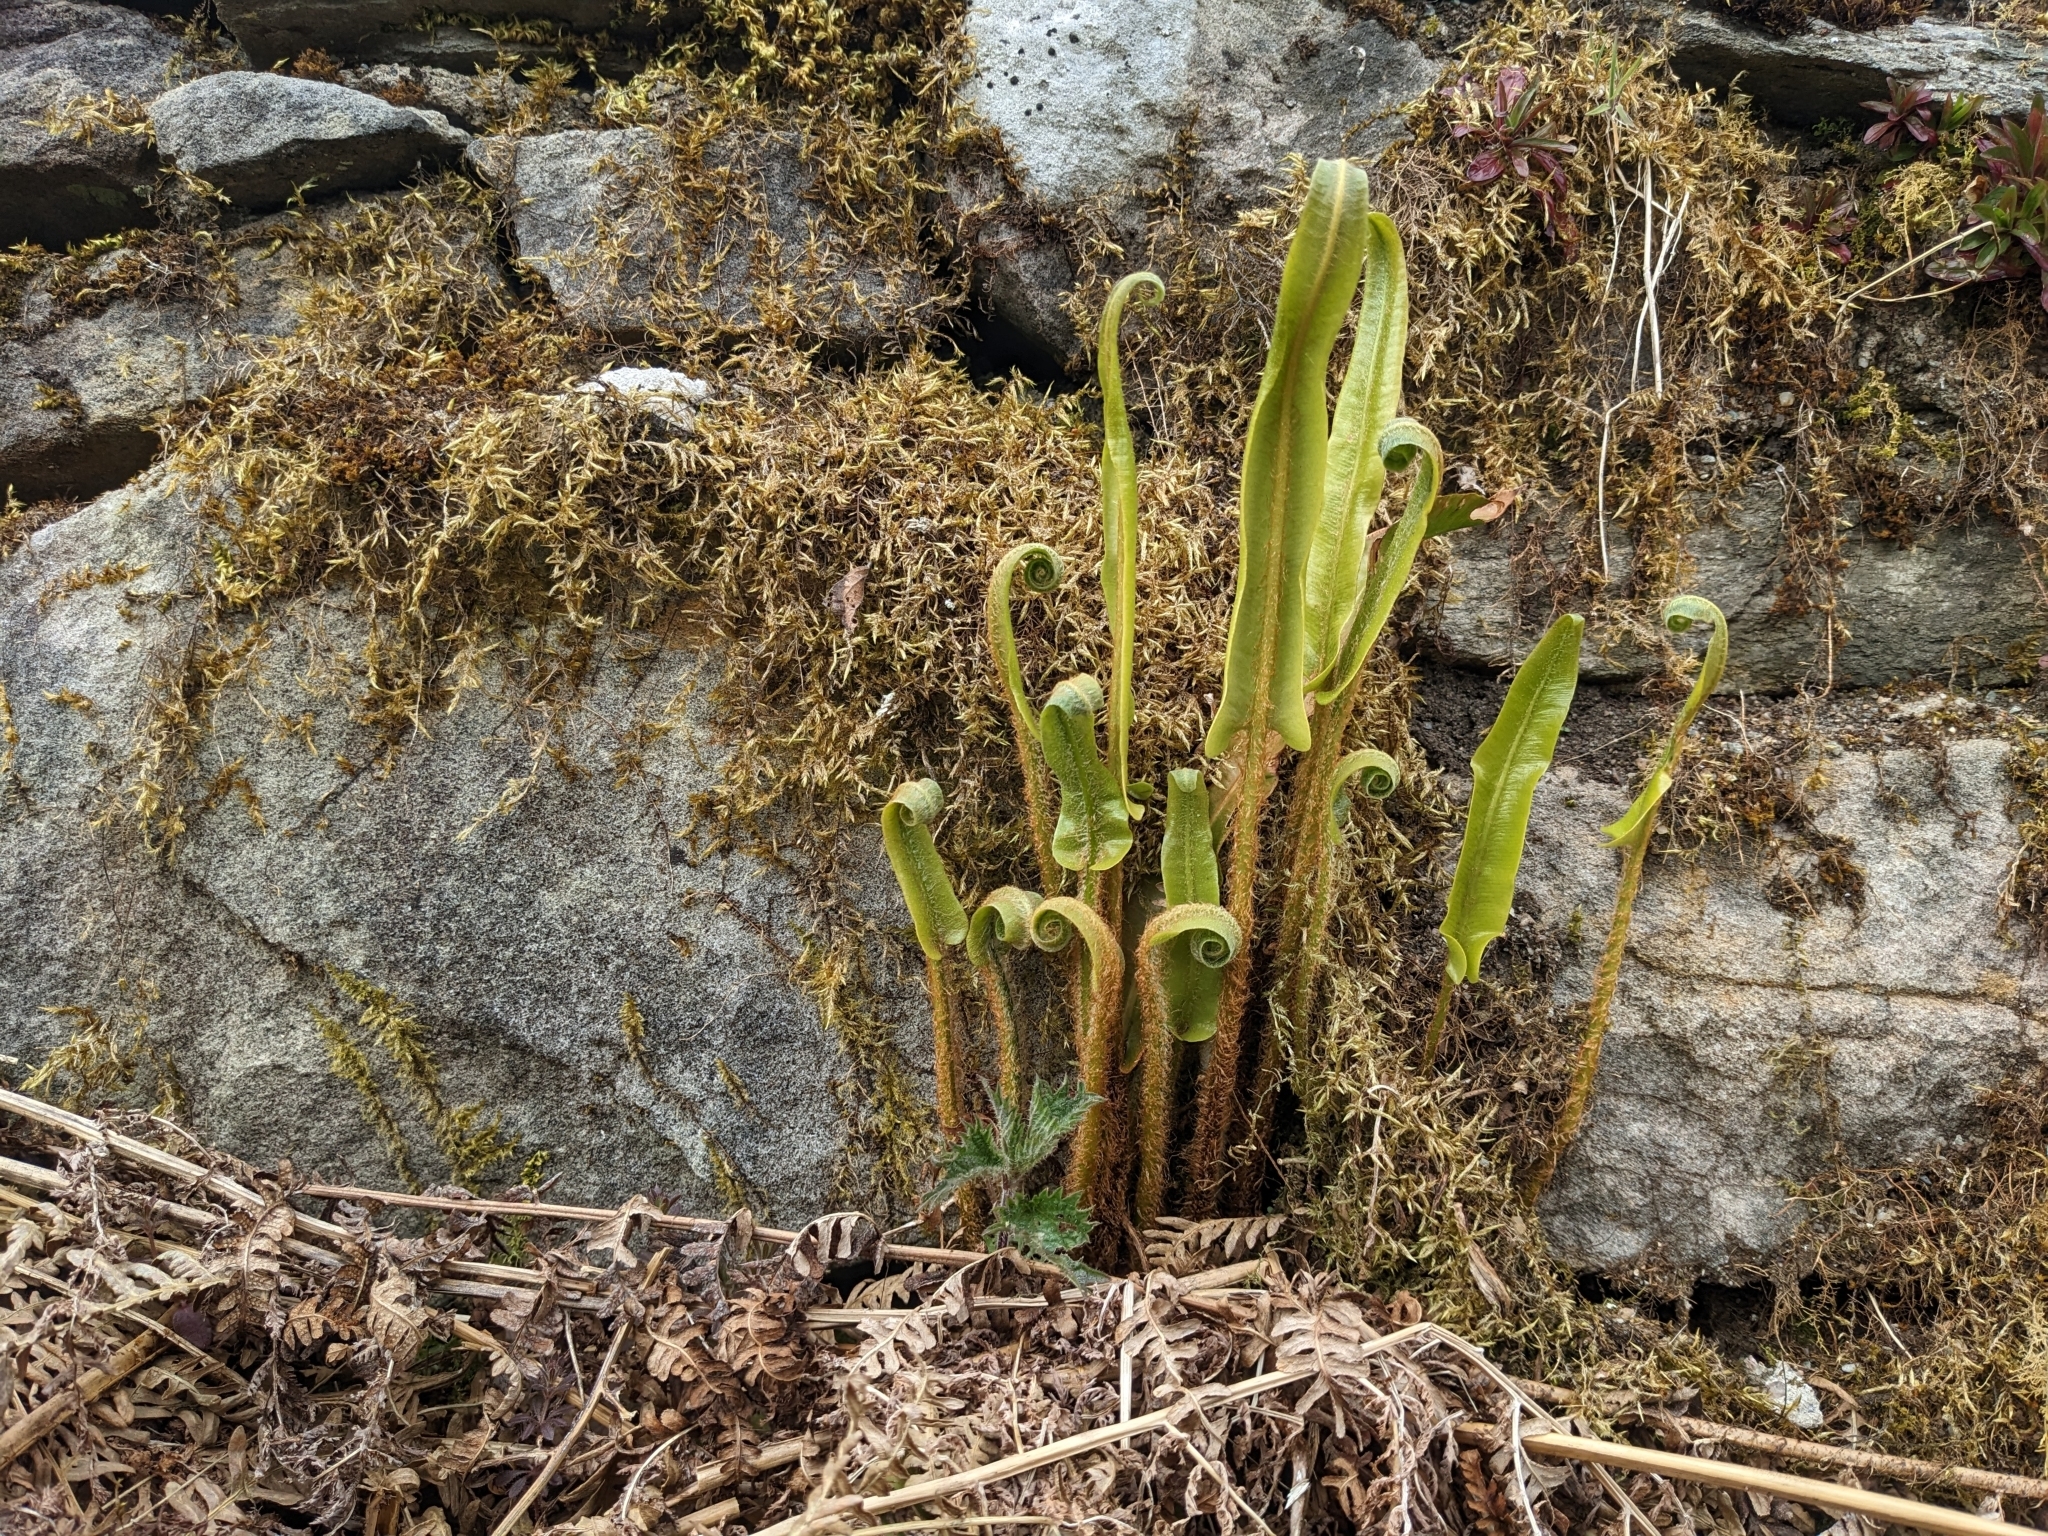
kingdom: Plantae
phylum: Tracheophyta
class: Polypodiopsida
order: Polypodiales
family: Aspleniaceae
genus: Asplenium
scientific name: Asplenium scolopendrium
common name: Hart's-tongue fern
